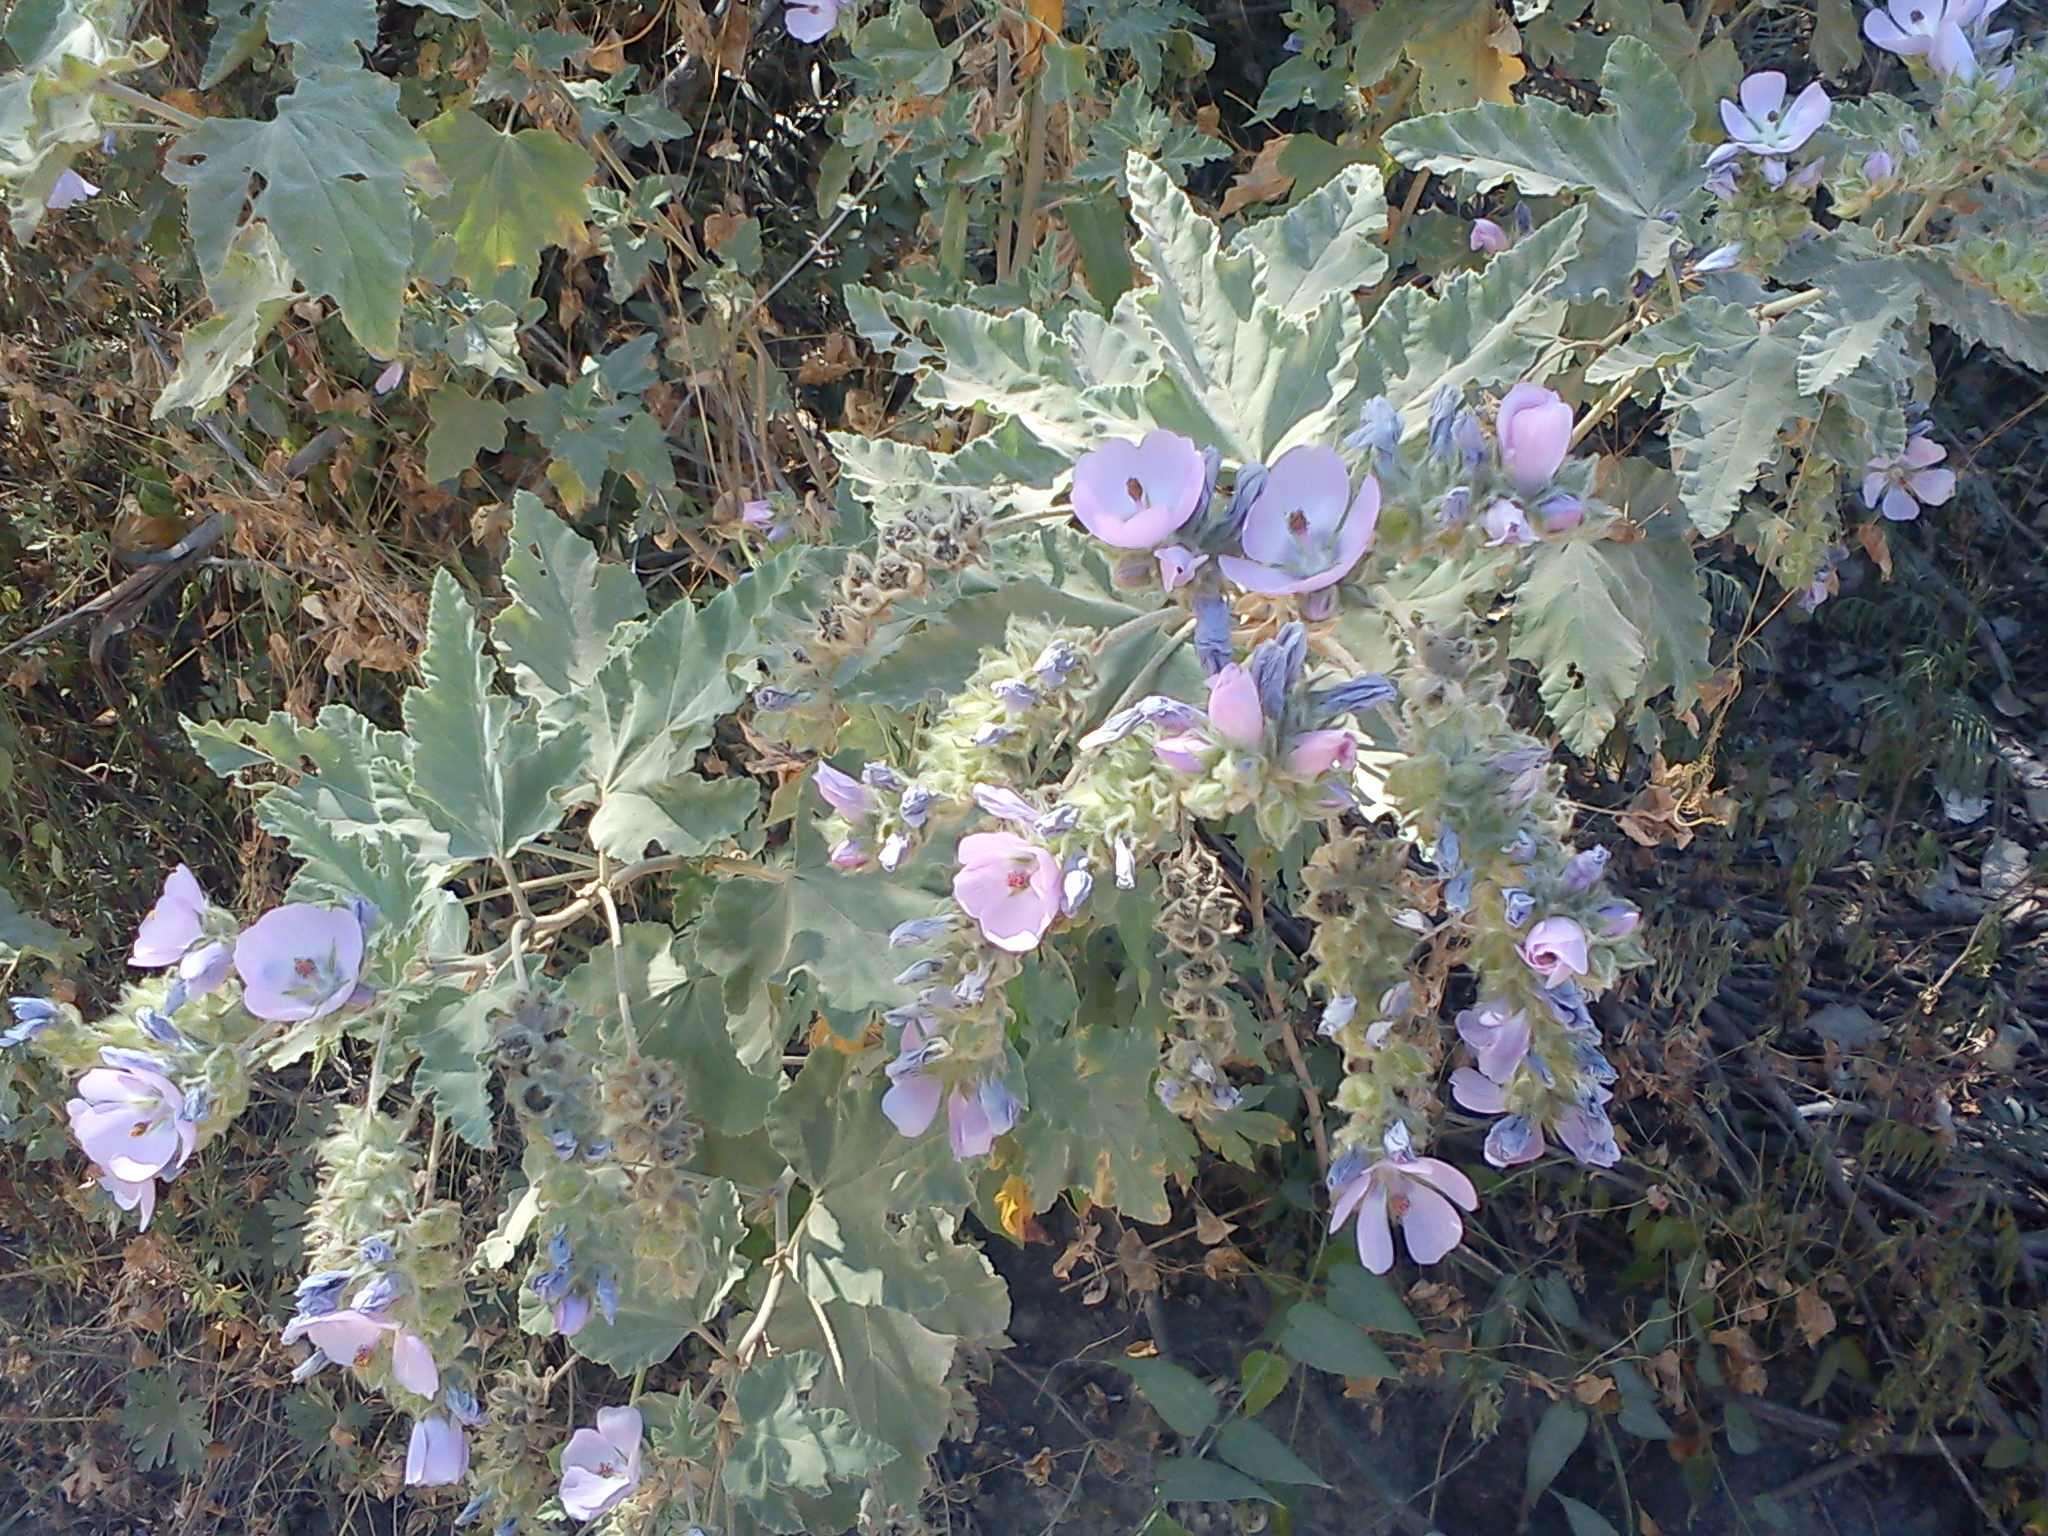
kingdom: Plantae
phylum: Tracheophyta
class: Magnoliopsida
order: Malvales
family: Malvaceae
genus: Tarasa
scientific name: Tarasa capitata
